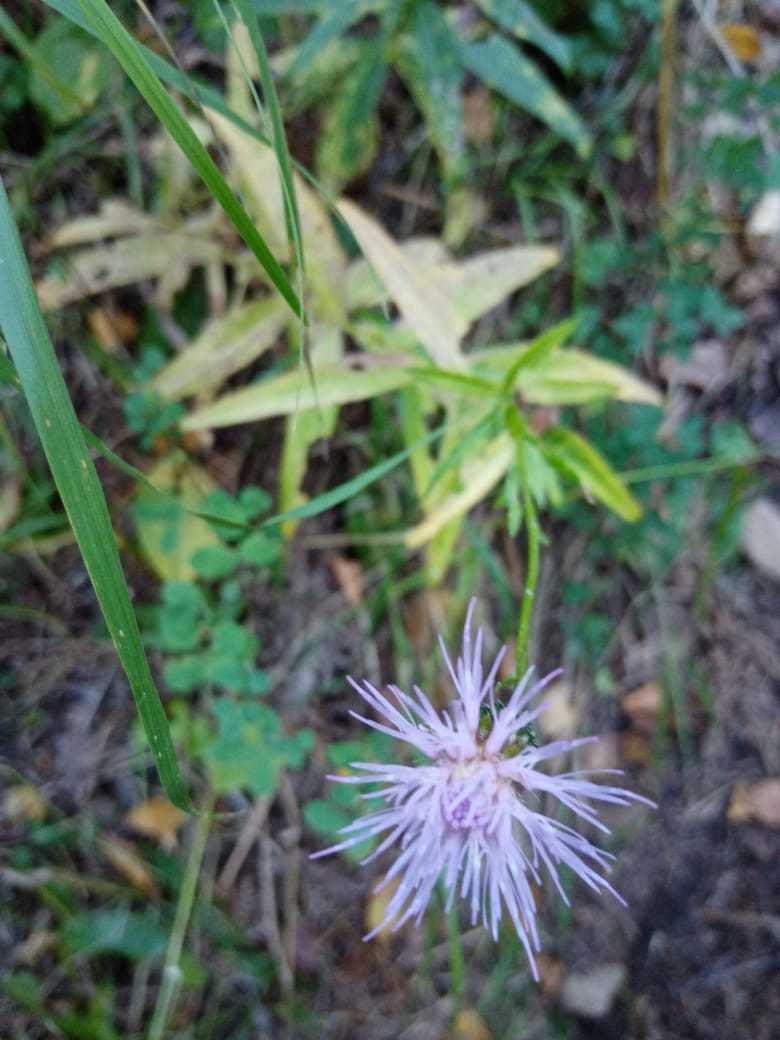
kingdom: Plantae
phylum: Tracheophyta
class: Magnoliopsida
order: Asterales
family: Asteraceae
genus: Cirsium
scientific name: Cirsium serratuloides
